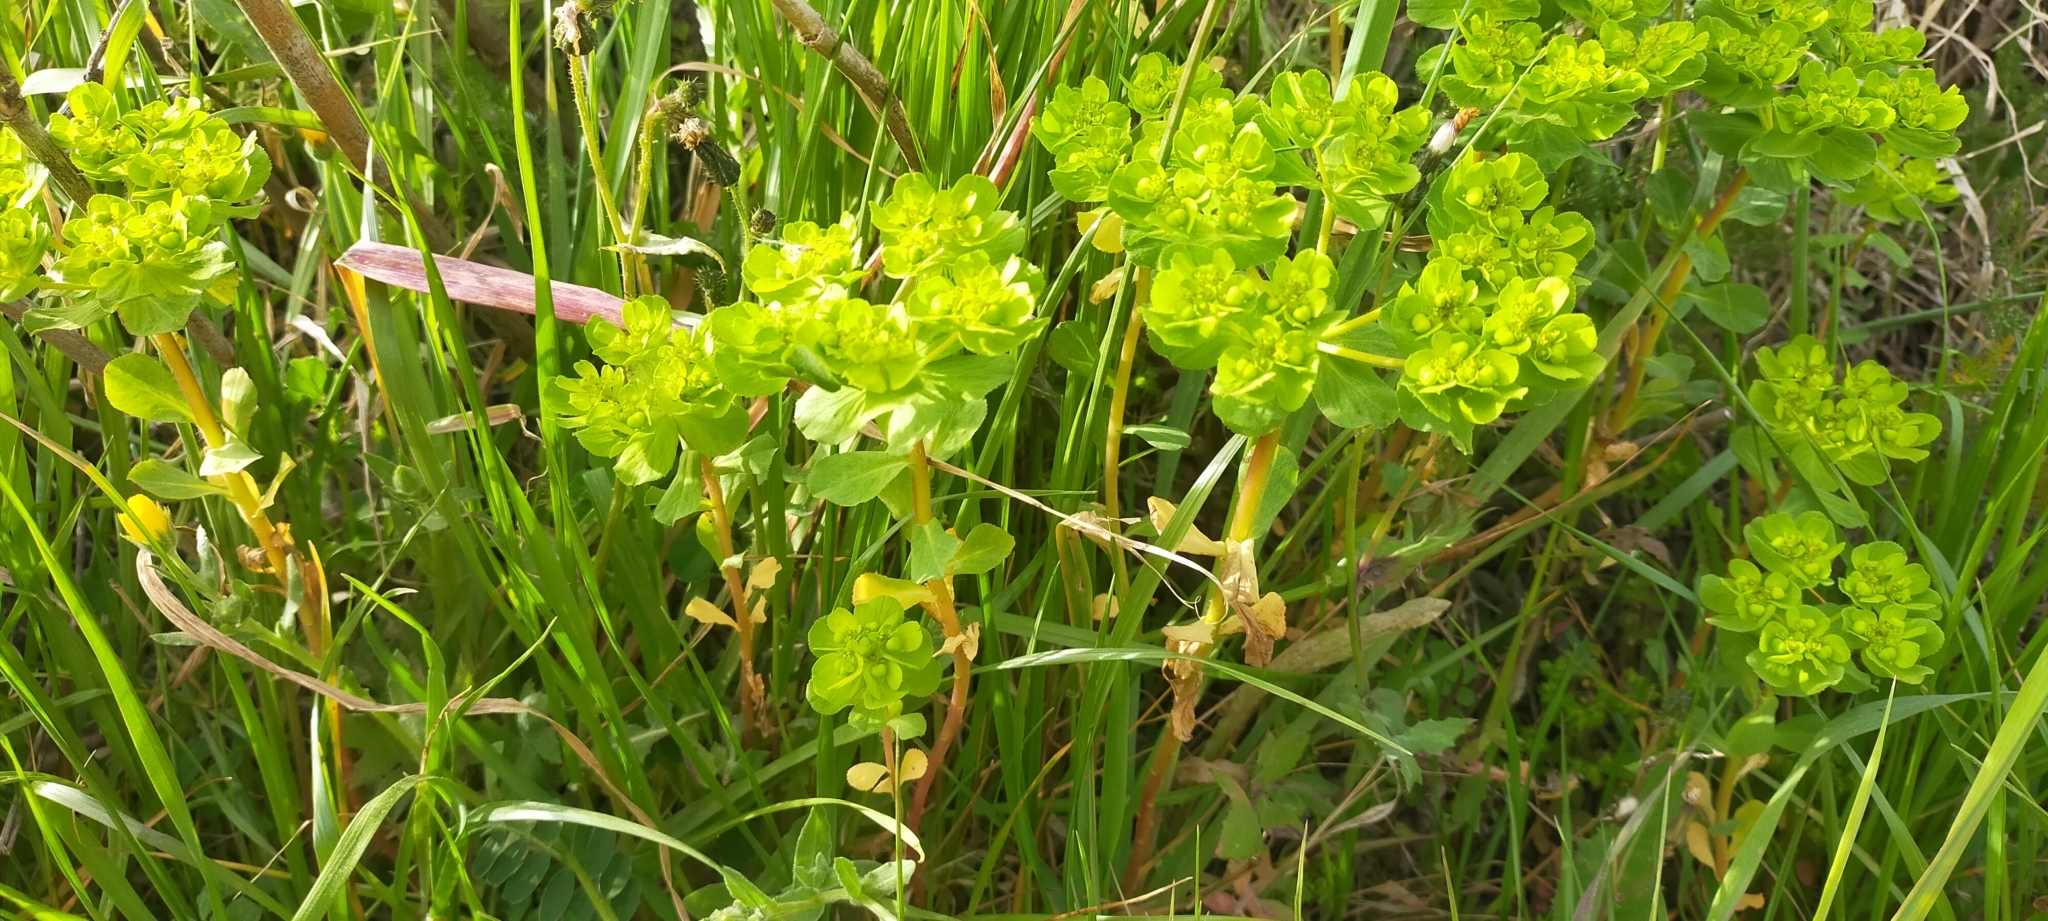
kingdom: Plantae
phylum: Tracheophyta
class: Magnoliopsida
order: Malpighiales
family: Euphorbiaceae
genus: Euphorbia
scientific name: Euphorbia helioscopia
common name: Sun spurge
